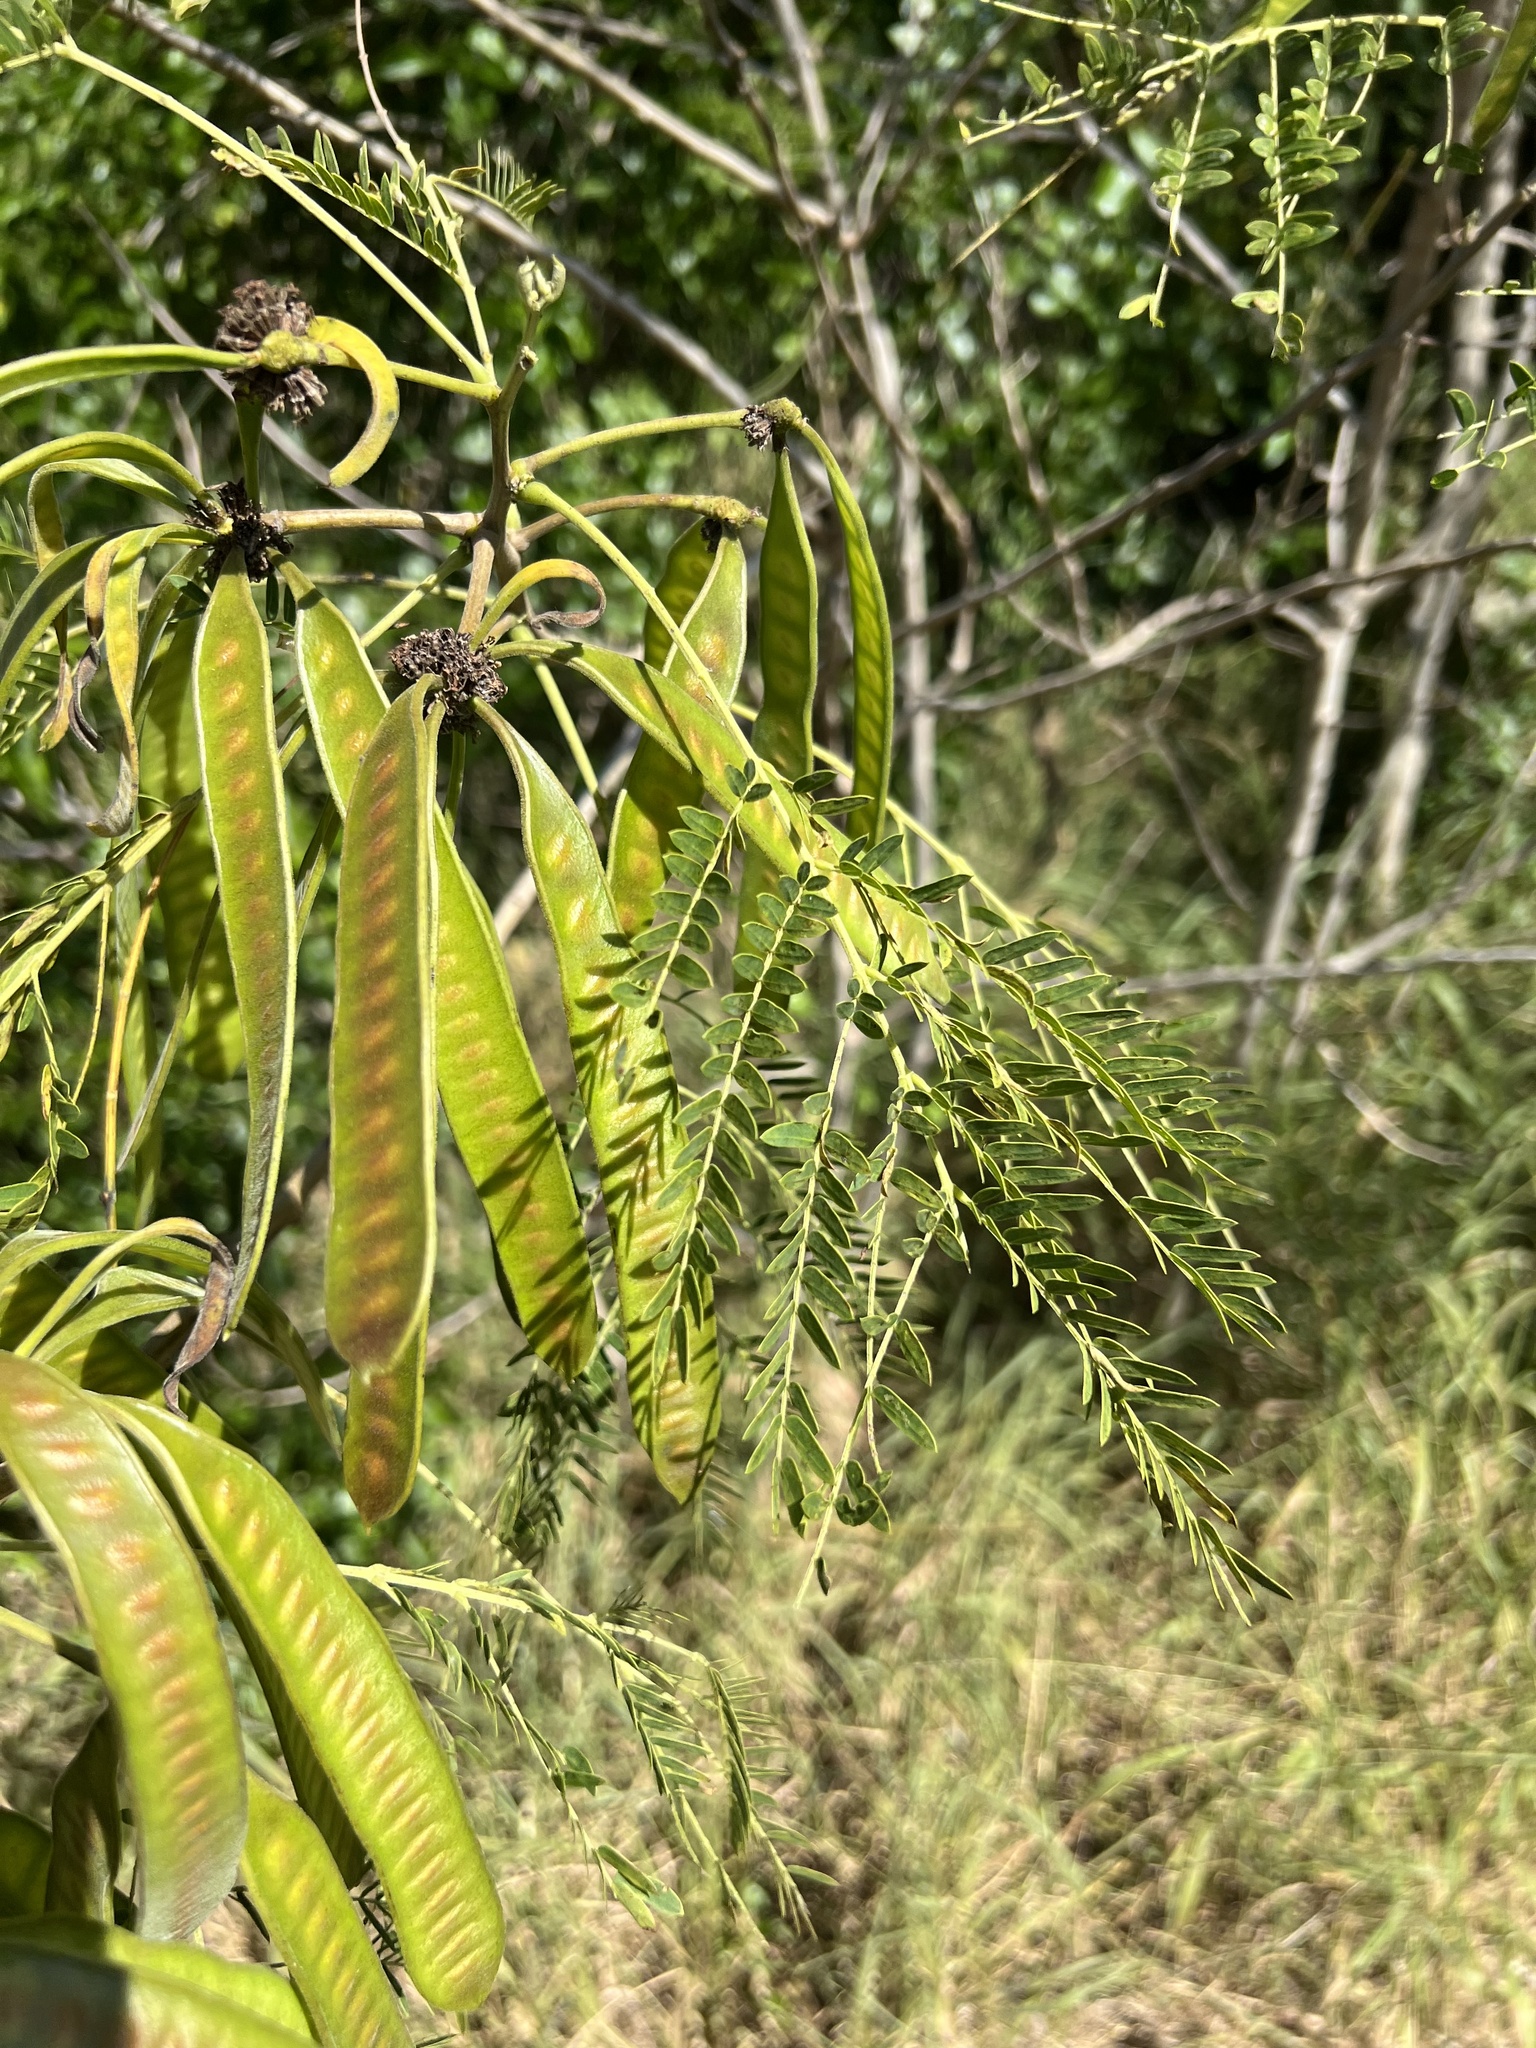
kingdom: Plantae
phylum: Tracheophyta
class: Magnoliopsida
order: Fabales
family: Fabaceae
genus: Leucaena
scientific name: Leucaena leucocephala
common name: White leadtree
